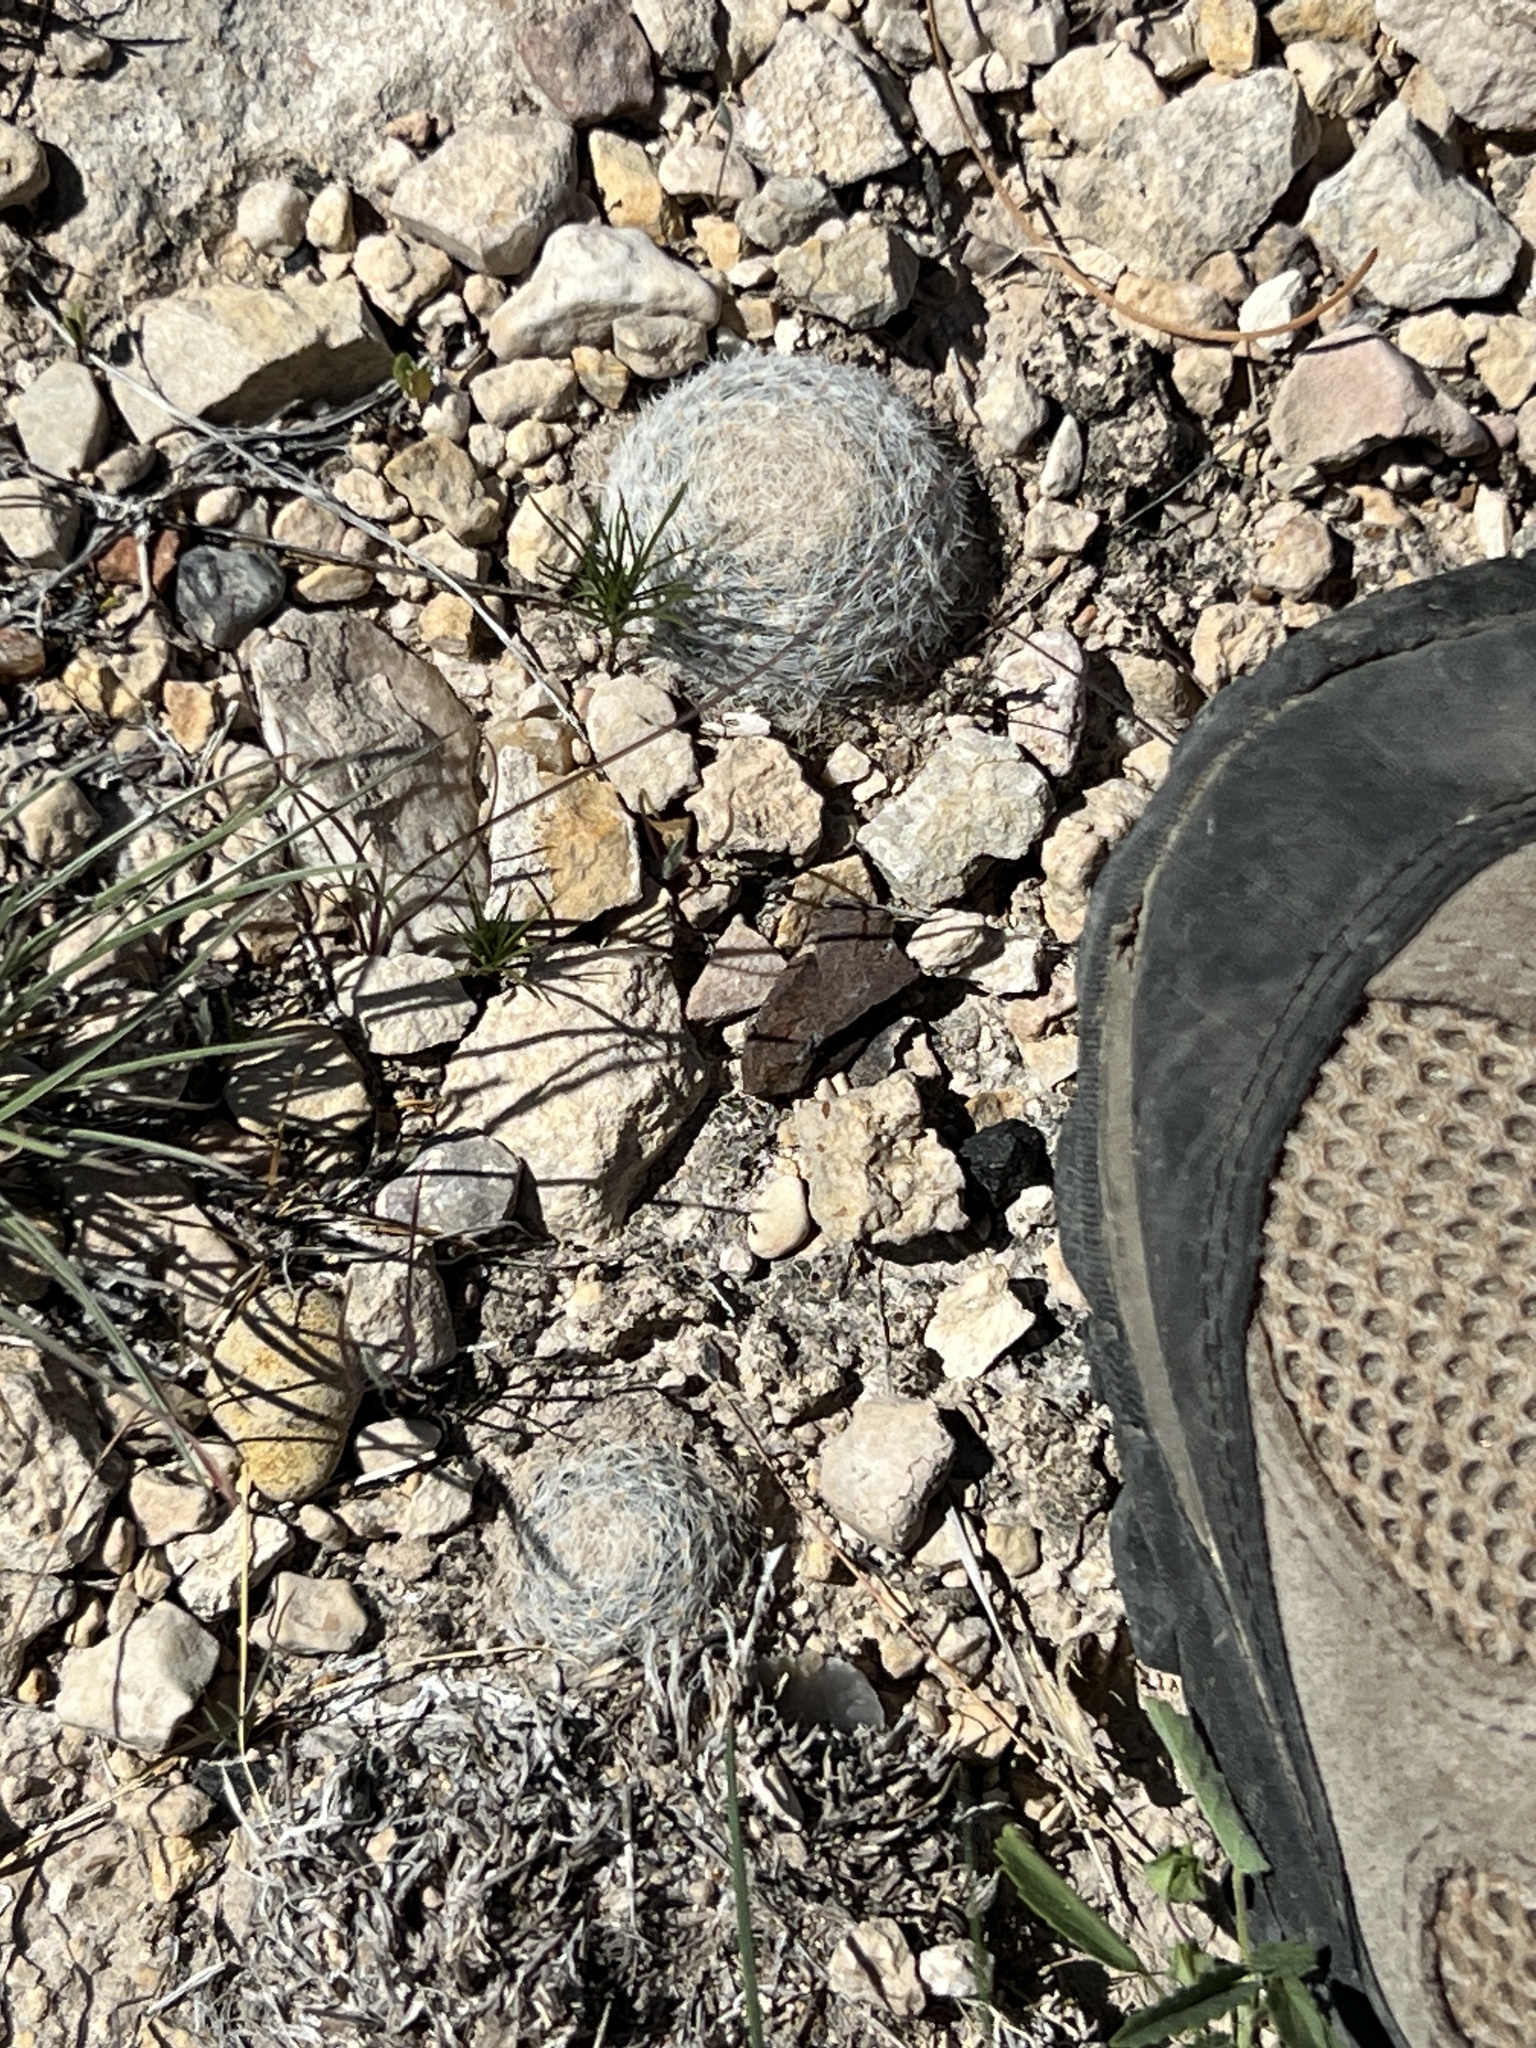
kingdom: Plantae
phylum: Tracheophyta
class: Magnoliopsida
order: Caryophyllales
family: Cactaceae
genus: Mammillaria
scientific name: Mammillaria lasiacantha
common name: Lace-spine nipple cactus
